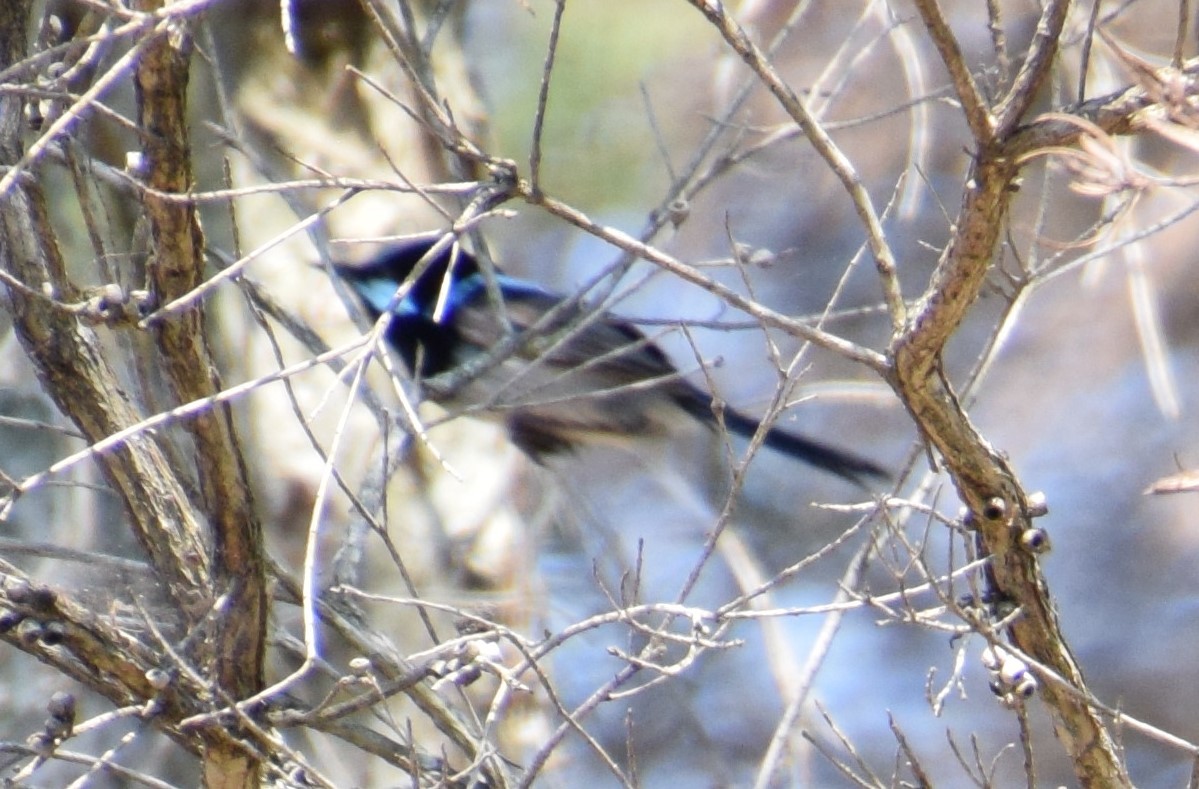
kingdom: Animalia
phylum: Chordata
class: Aves
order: Passeriformes
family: Maluridae
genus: Malurus
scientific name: Malurus cyaneus
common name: Superb fairywren
